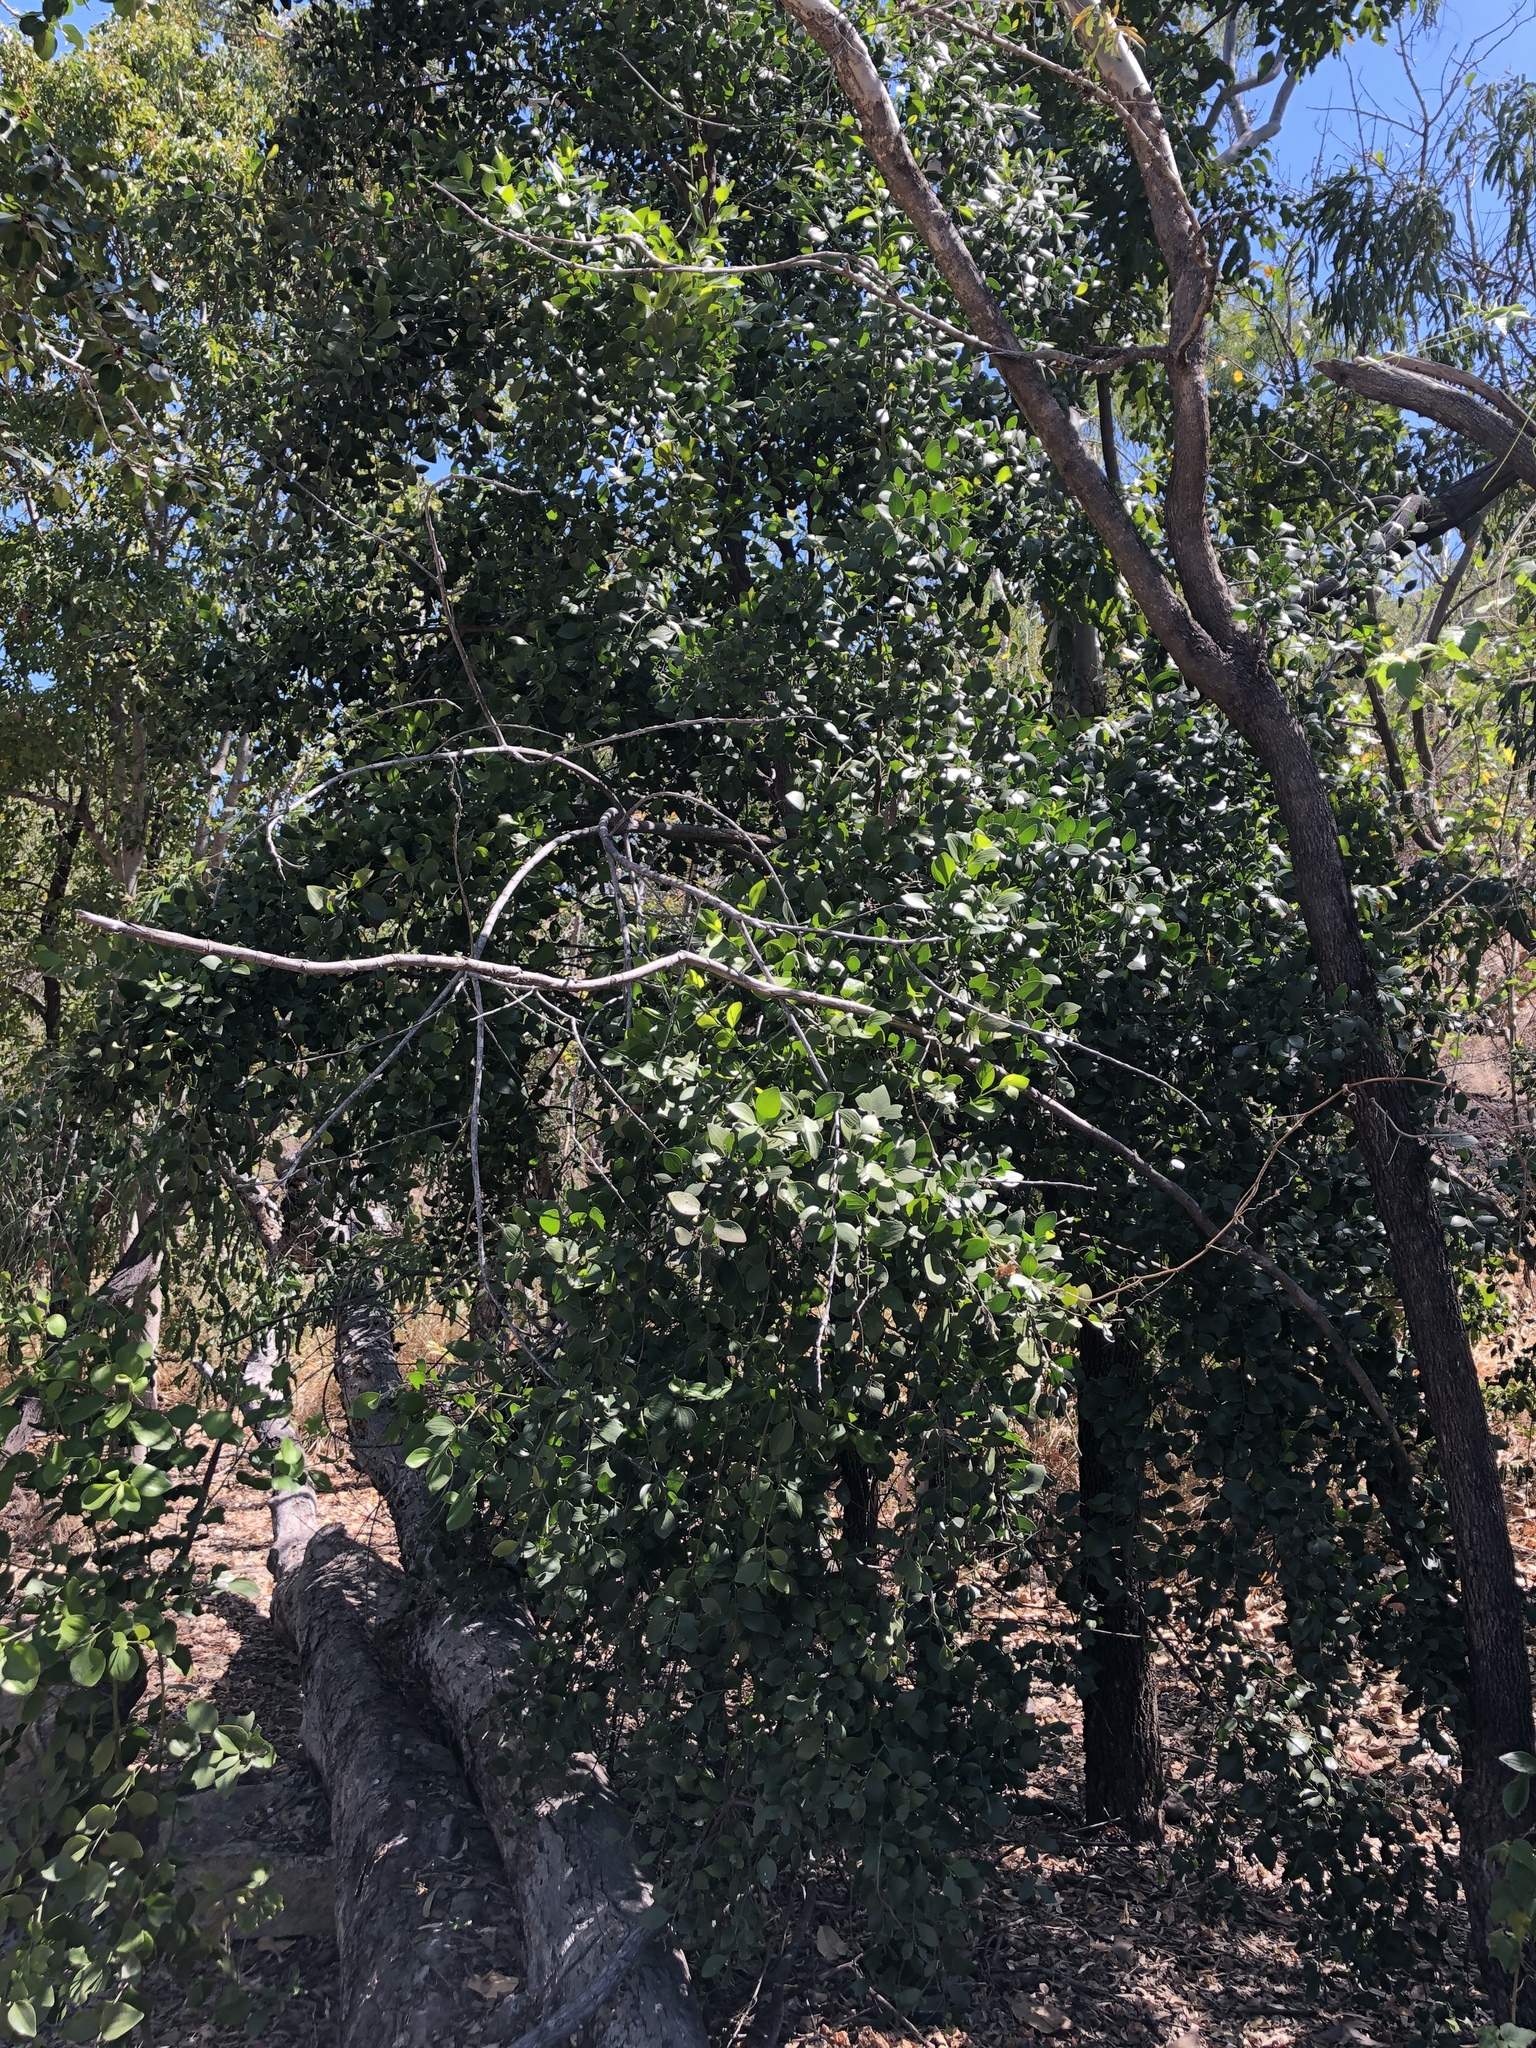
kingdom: Plantae
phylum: Tracheophyta
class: Magnoliopsida
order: Santalales
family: Santalaceae
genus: Exocarpos
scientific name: Exocarpos latifolius
